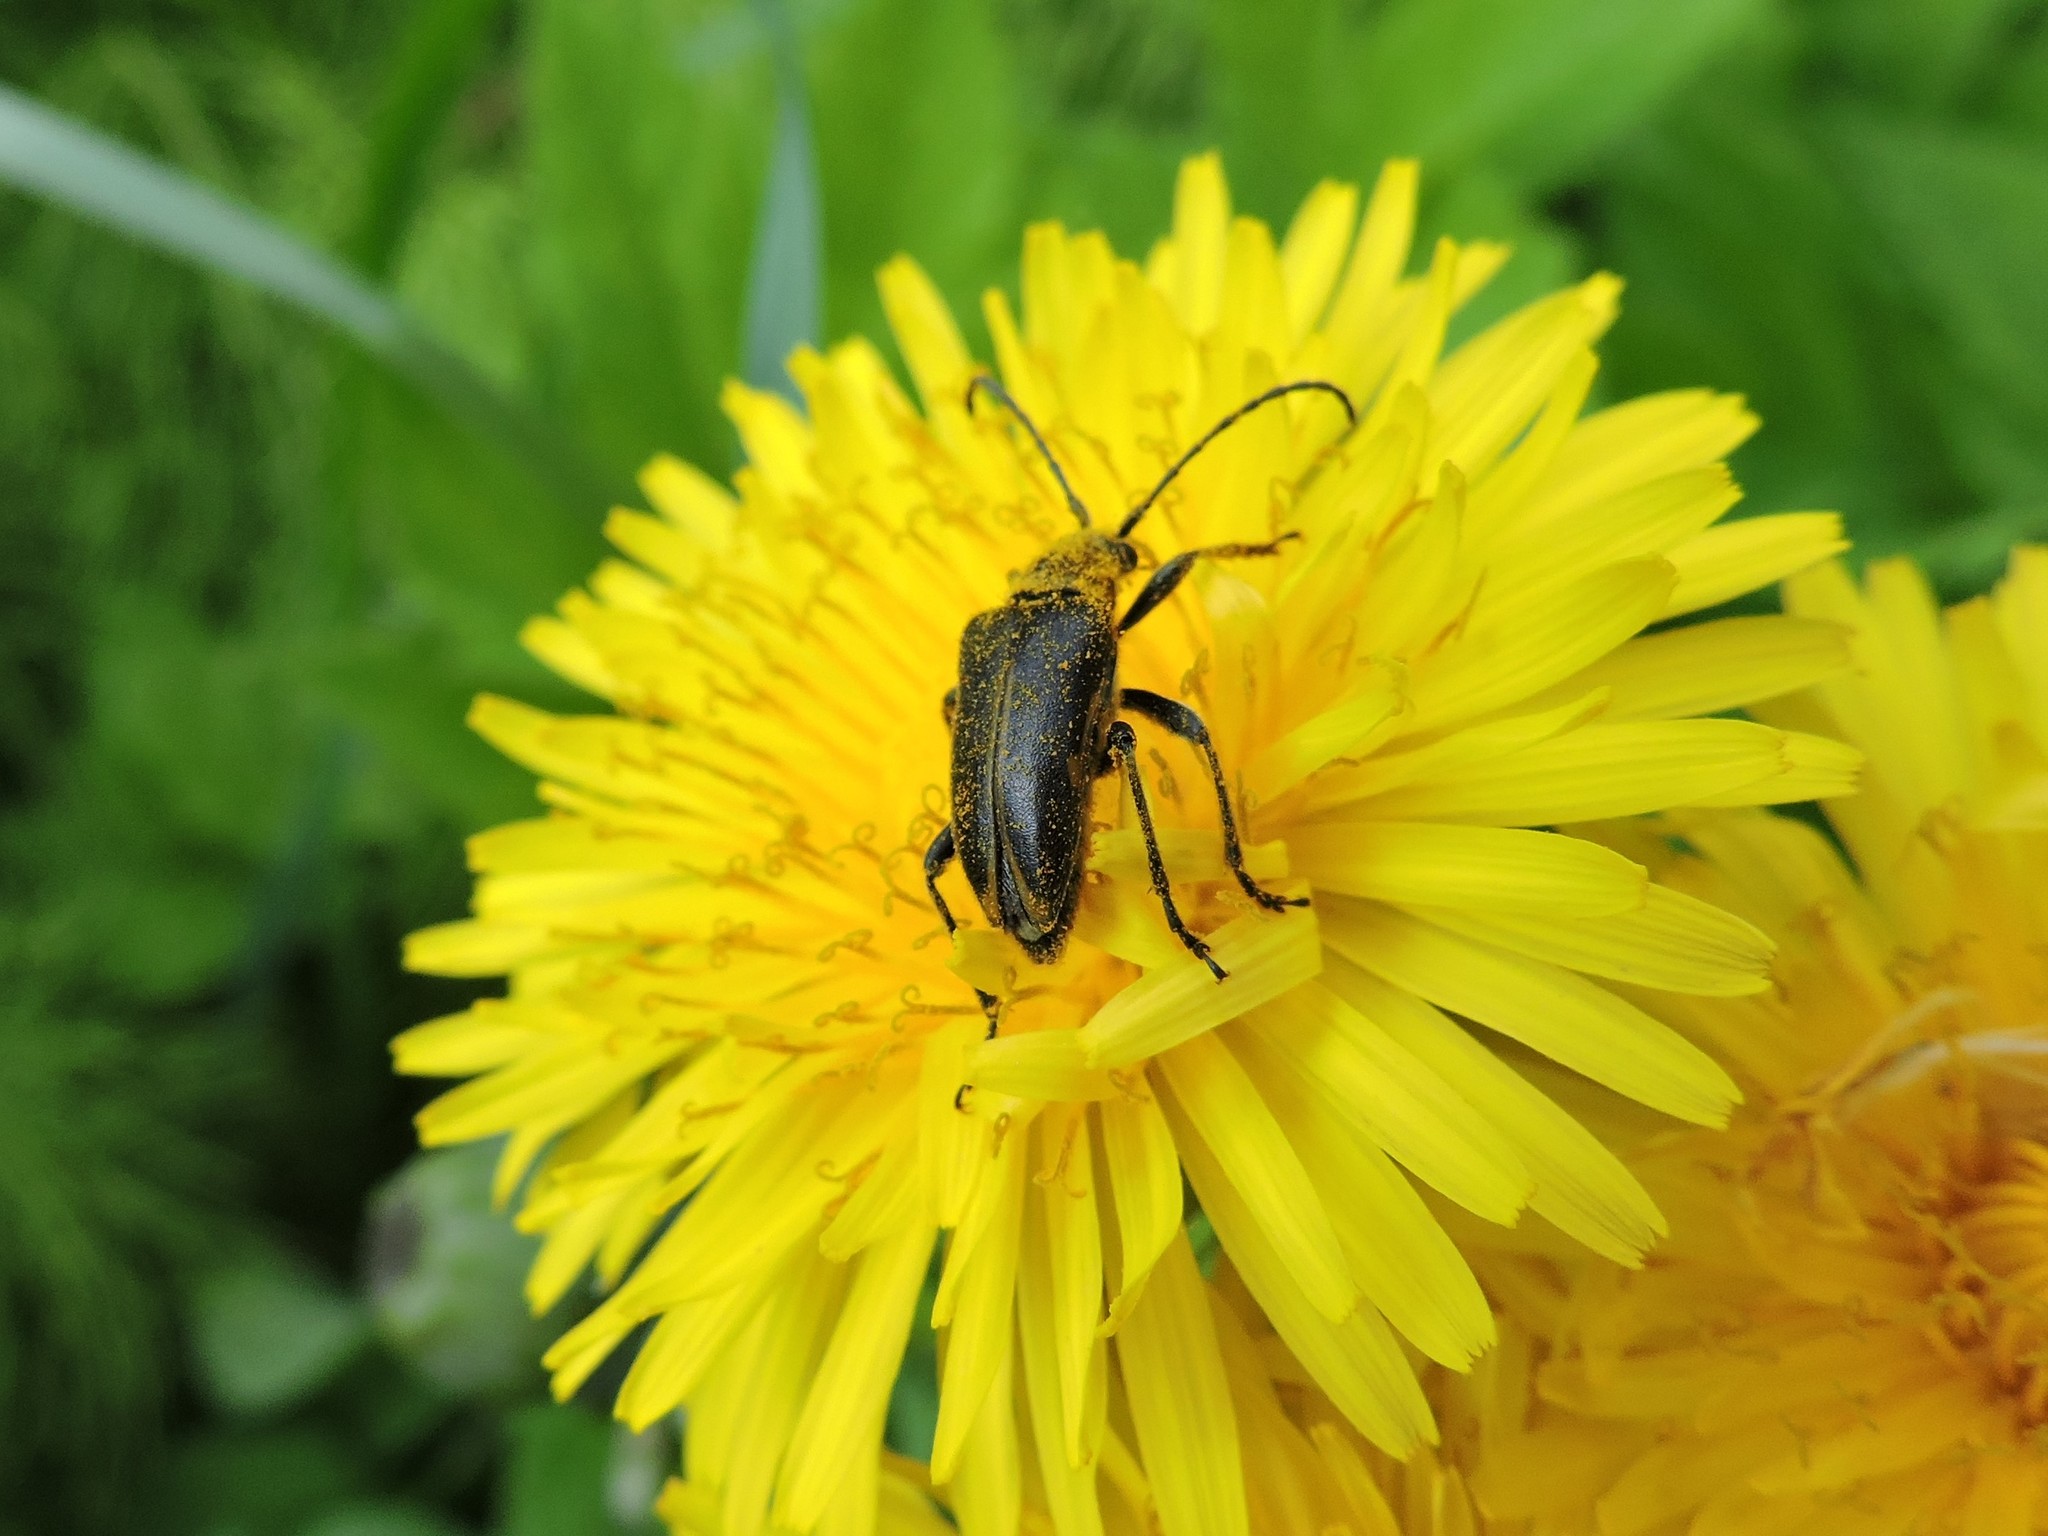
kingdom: Animalia
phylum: Arthropoda
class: Insecta
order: Coleoptera
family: Cerambycidae
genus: Brachyta
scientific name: Brachyta interrogationis
